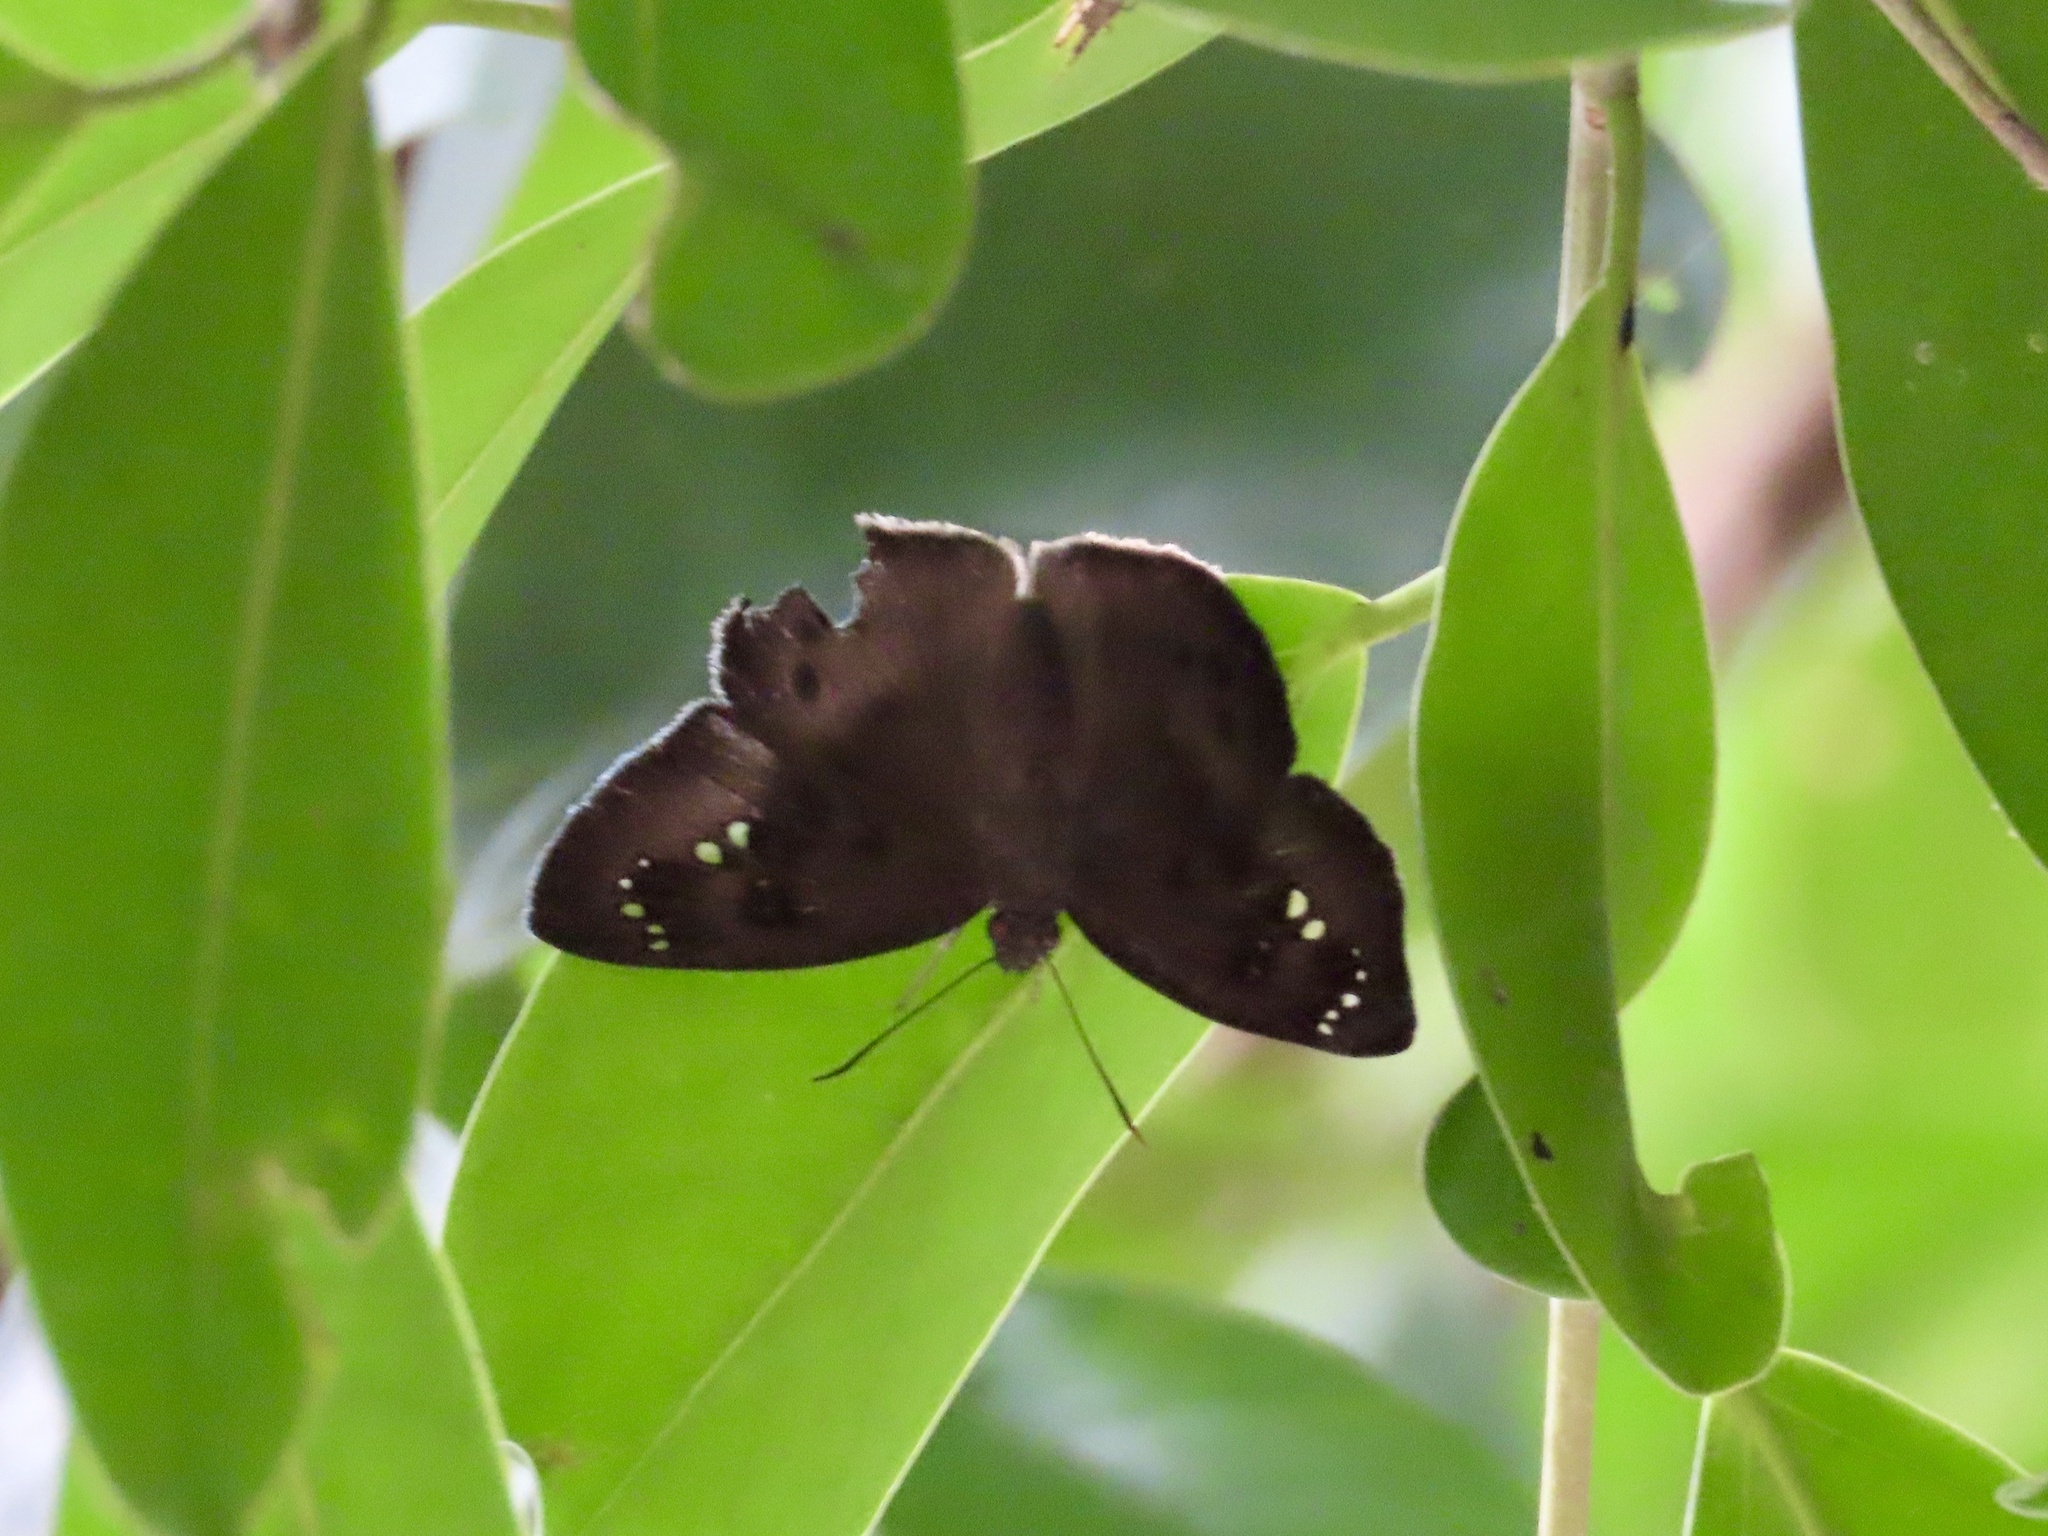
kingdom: Animalia
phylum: Arthropoda
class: Insecta
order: Lepidoptera
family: Hesperiidae
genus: Tagiades
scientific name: Tagiades japetus
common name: Pied flat
